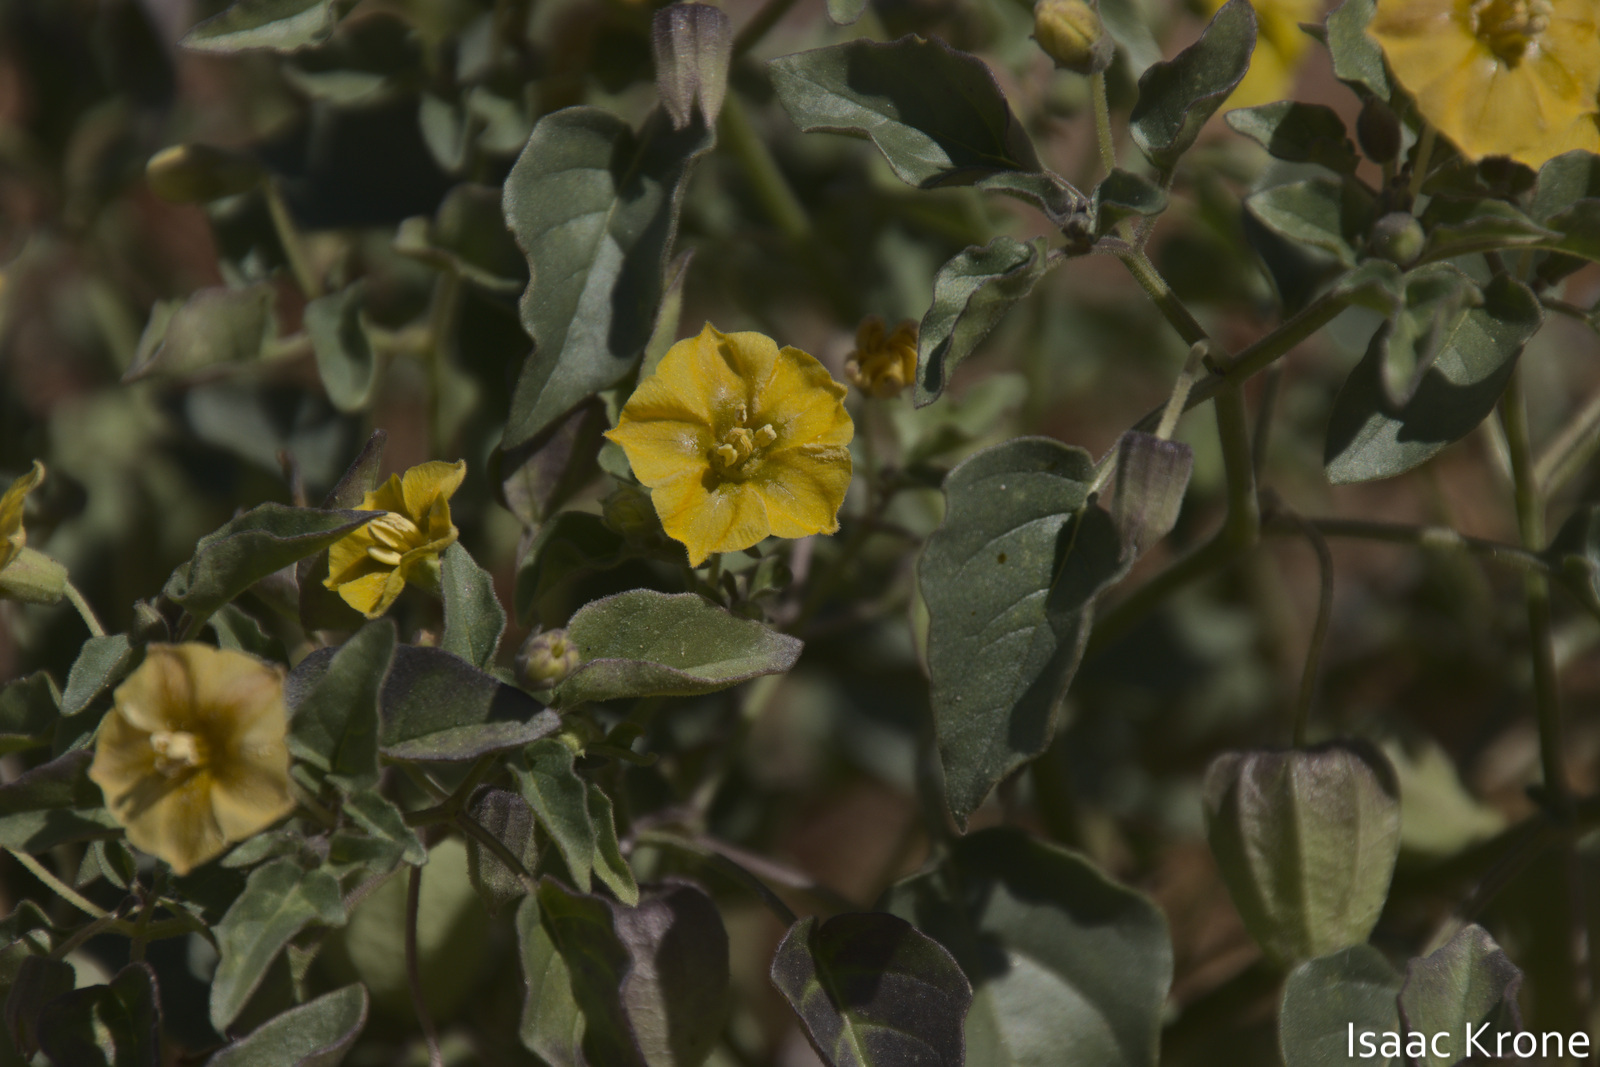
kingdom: Plantae
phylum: Tracheophyta
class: Magnoliopsida
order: Solanales
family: Solanaceae
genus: Physalis
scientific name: Physalis crassifolia
